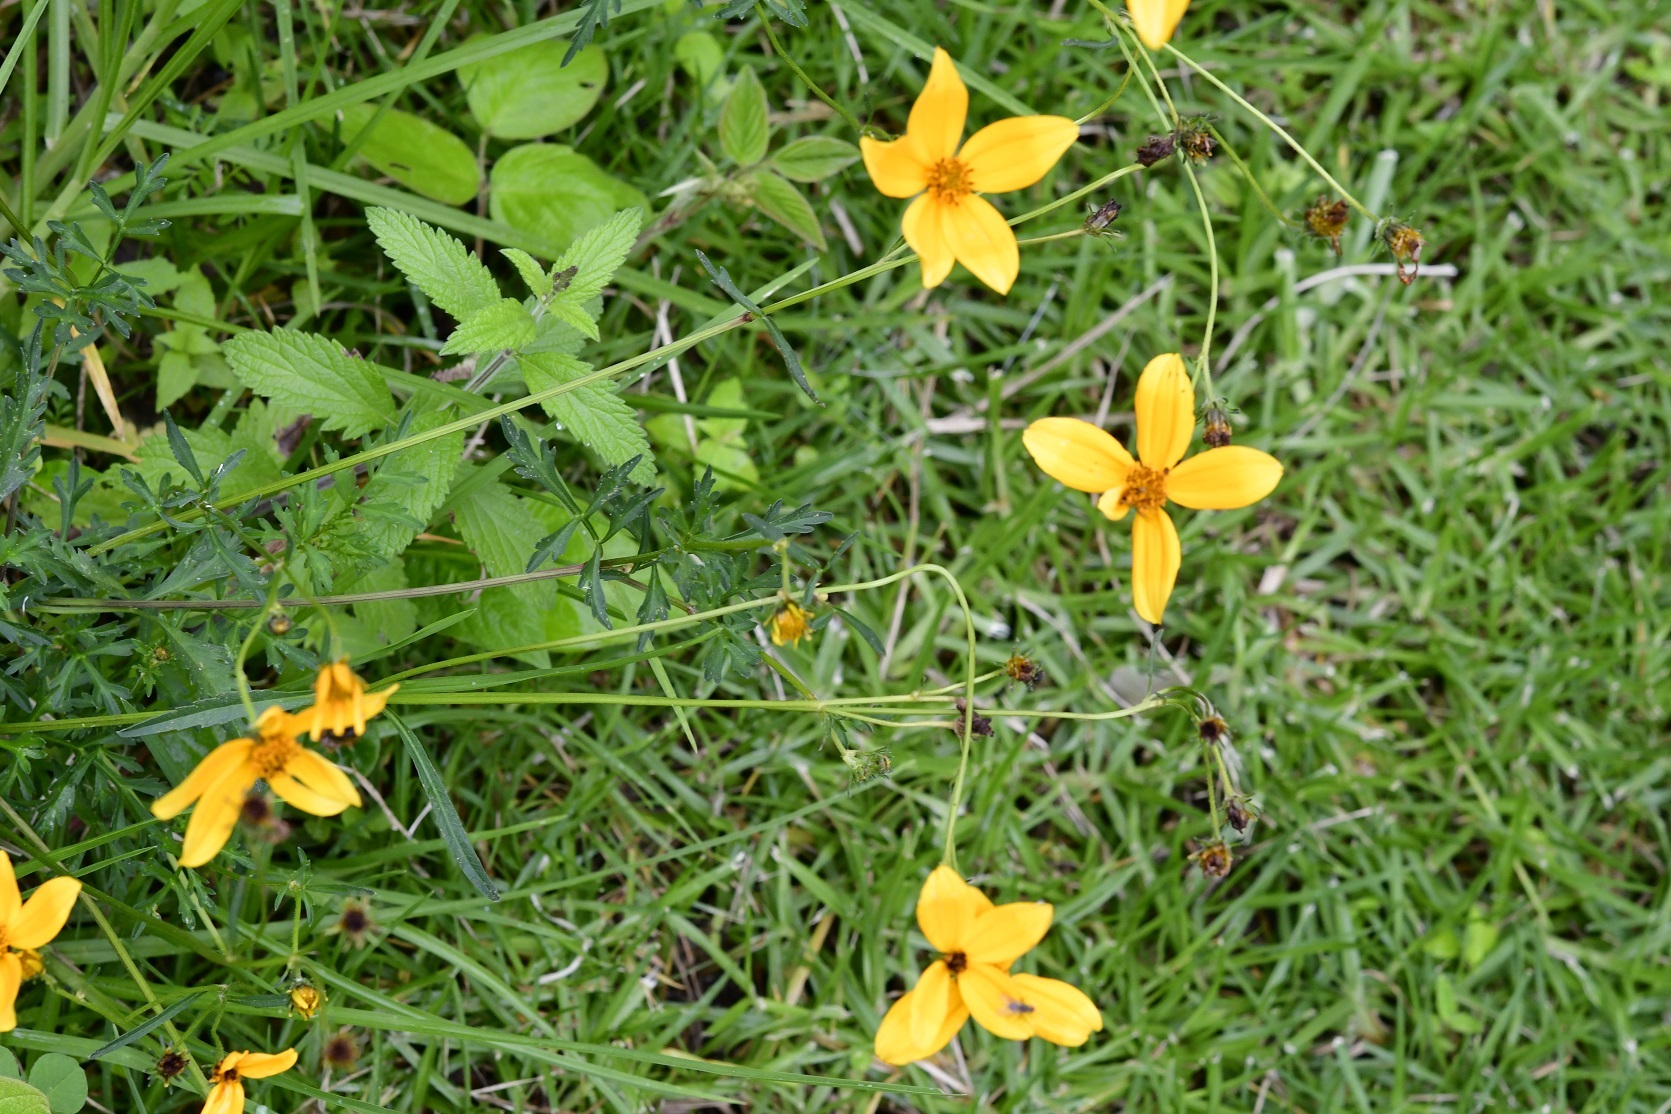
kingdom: Plantae
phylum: Tracheophyta
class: Magnoliopsida
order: Asterales
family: Asteraceae
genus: Bidens
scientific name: Bidens triplinervia
